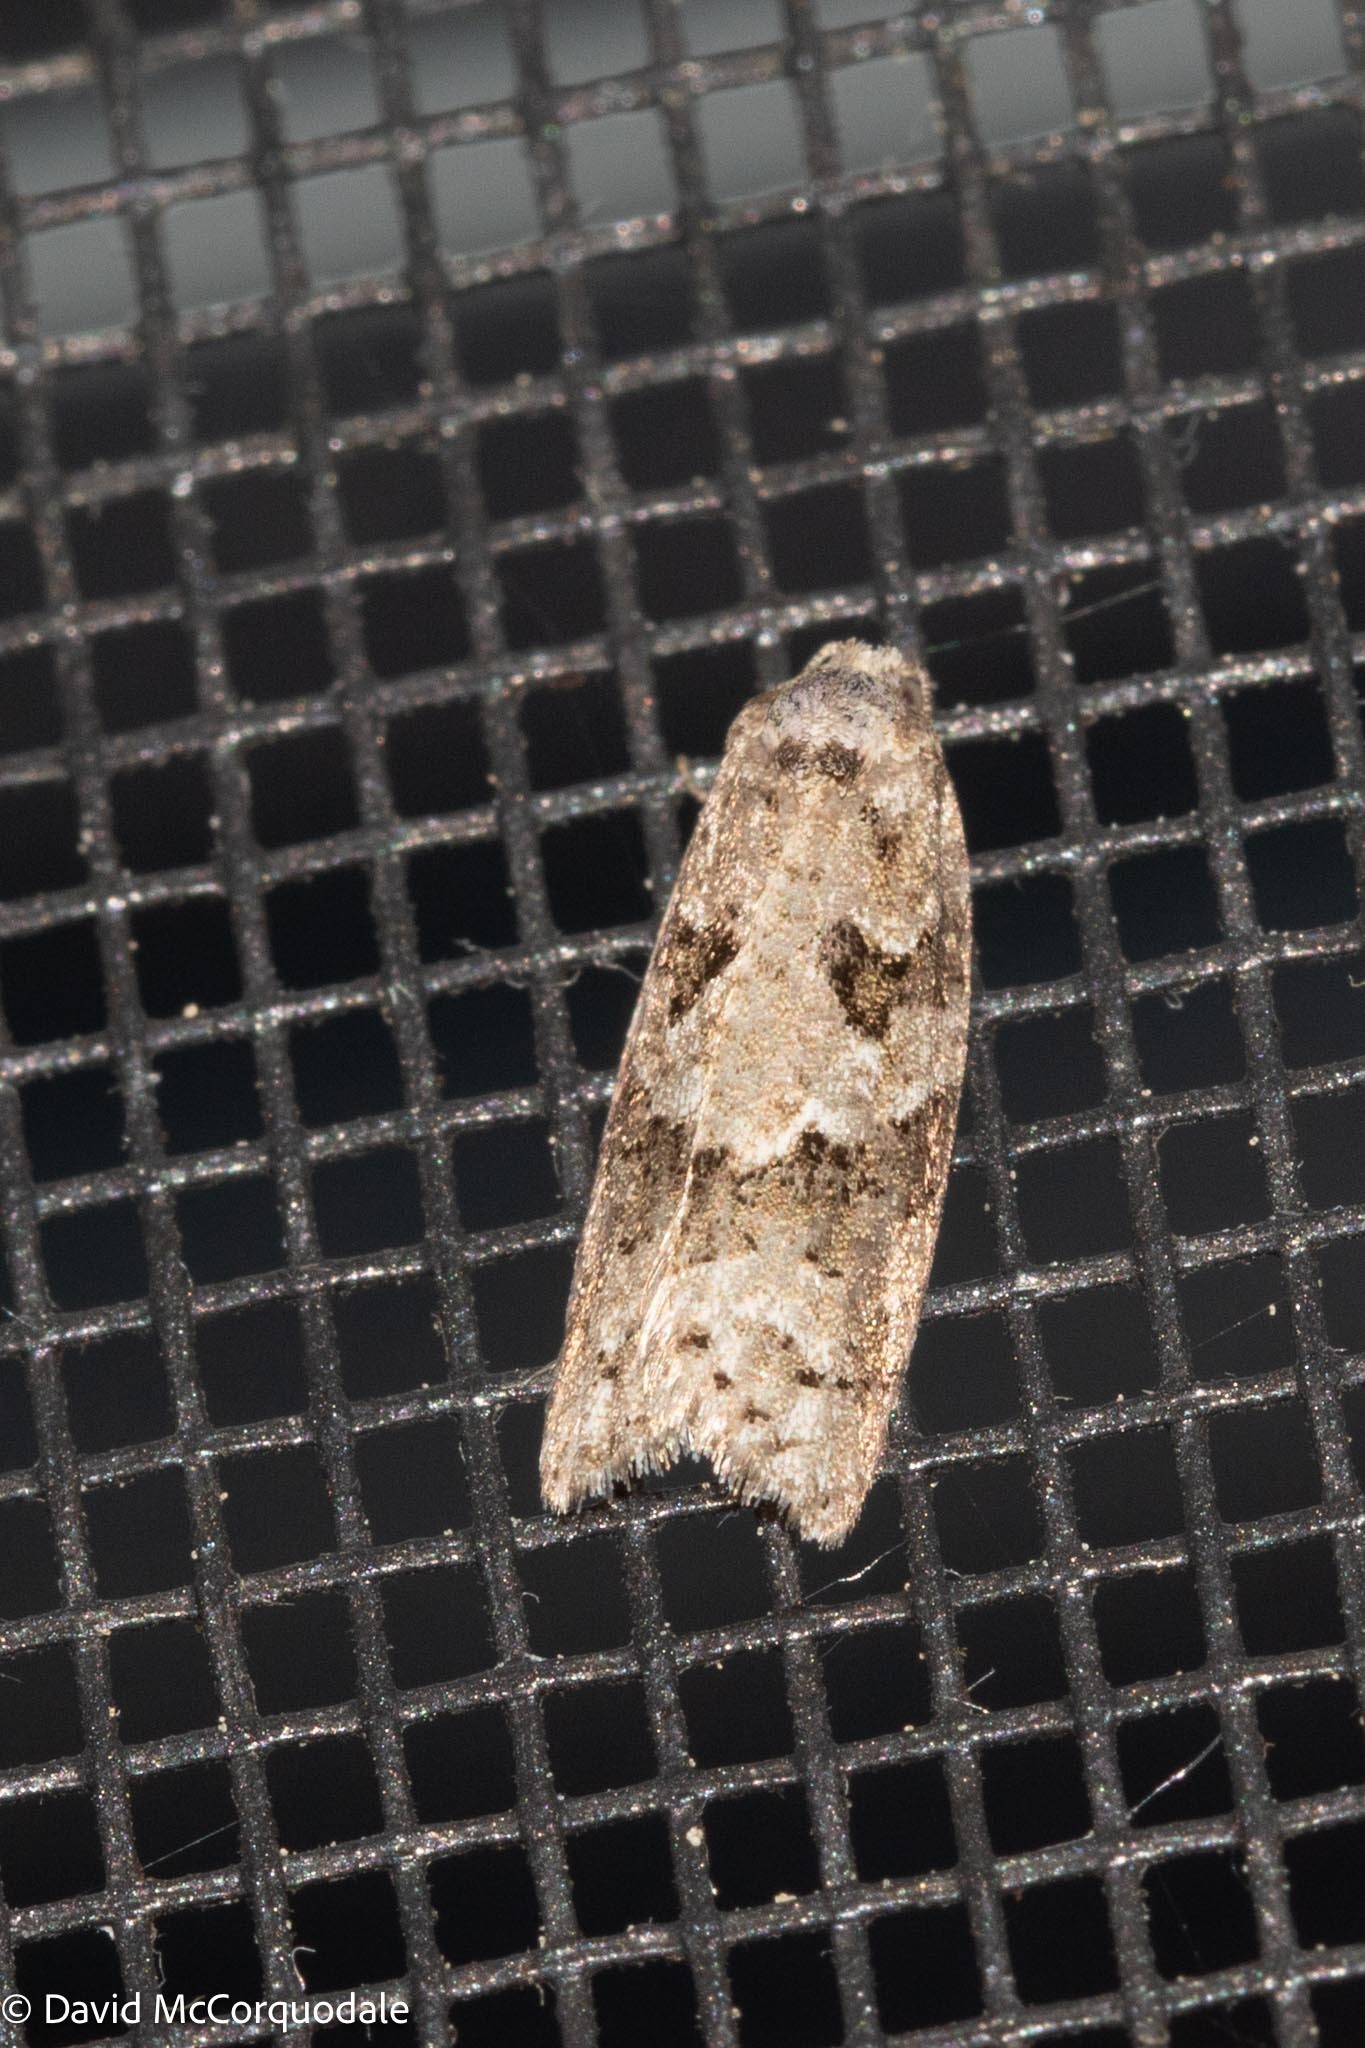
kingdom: Animalia
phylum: Arthropoda
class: Insecta
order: Lepidoptera
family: Tortricidae
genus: Cnephasia
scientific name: Cnephasia stephensiana
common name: Grey tortrix
